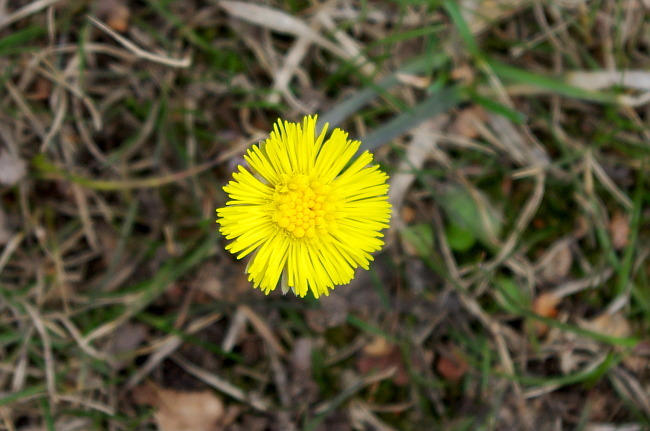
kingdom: Plantae
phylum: Tracheophyta
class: Magnoliopsida
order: Asterales
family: Asteraceae
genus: Tussilago
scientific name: Tussilago farfara
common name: Coltsfoot
